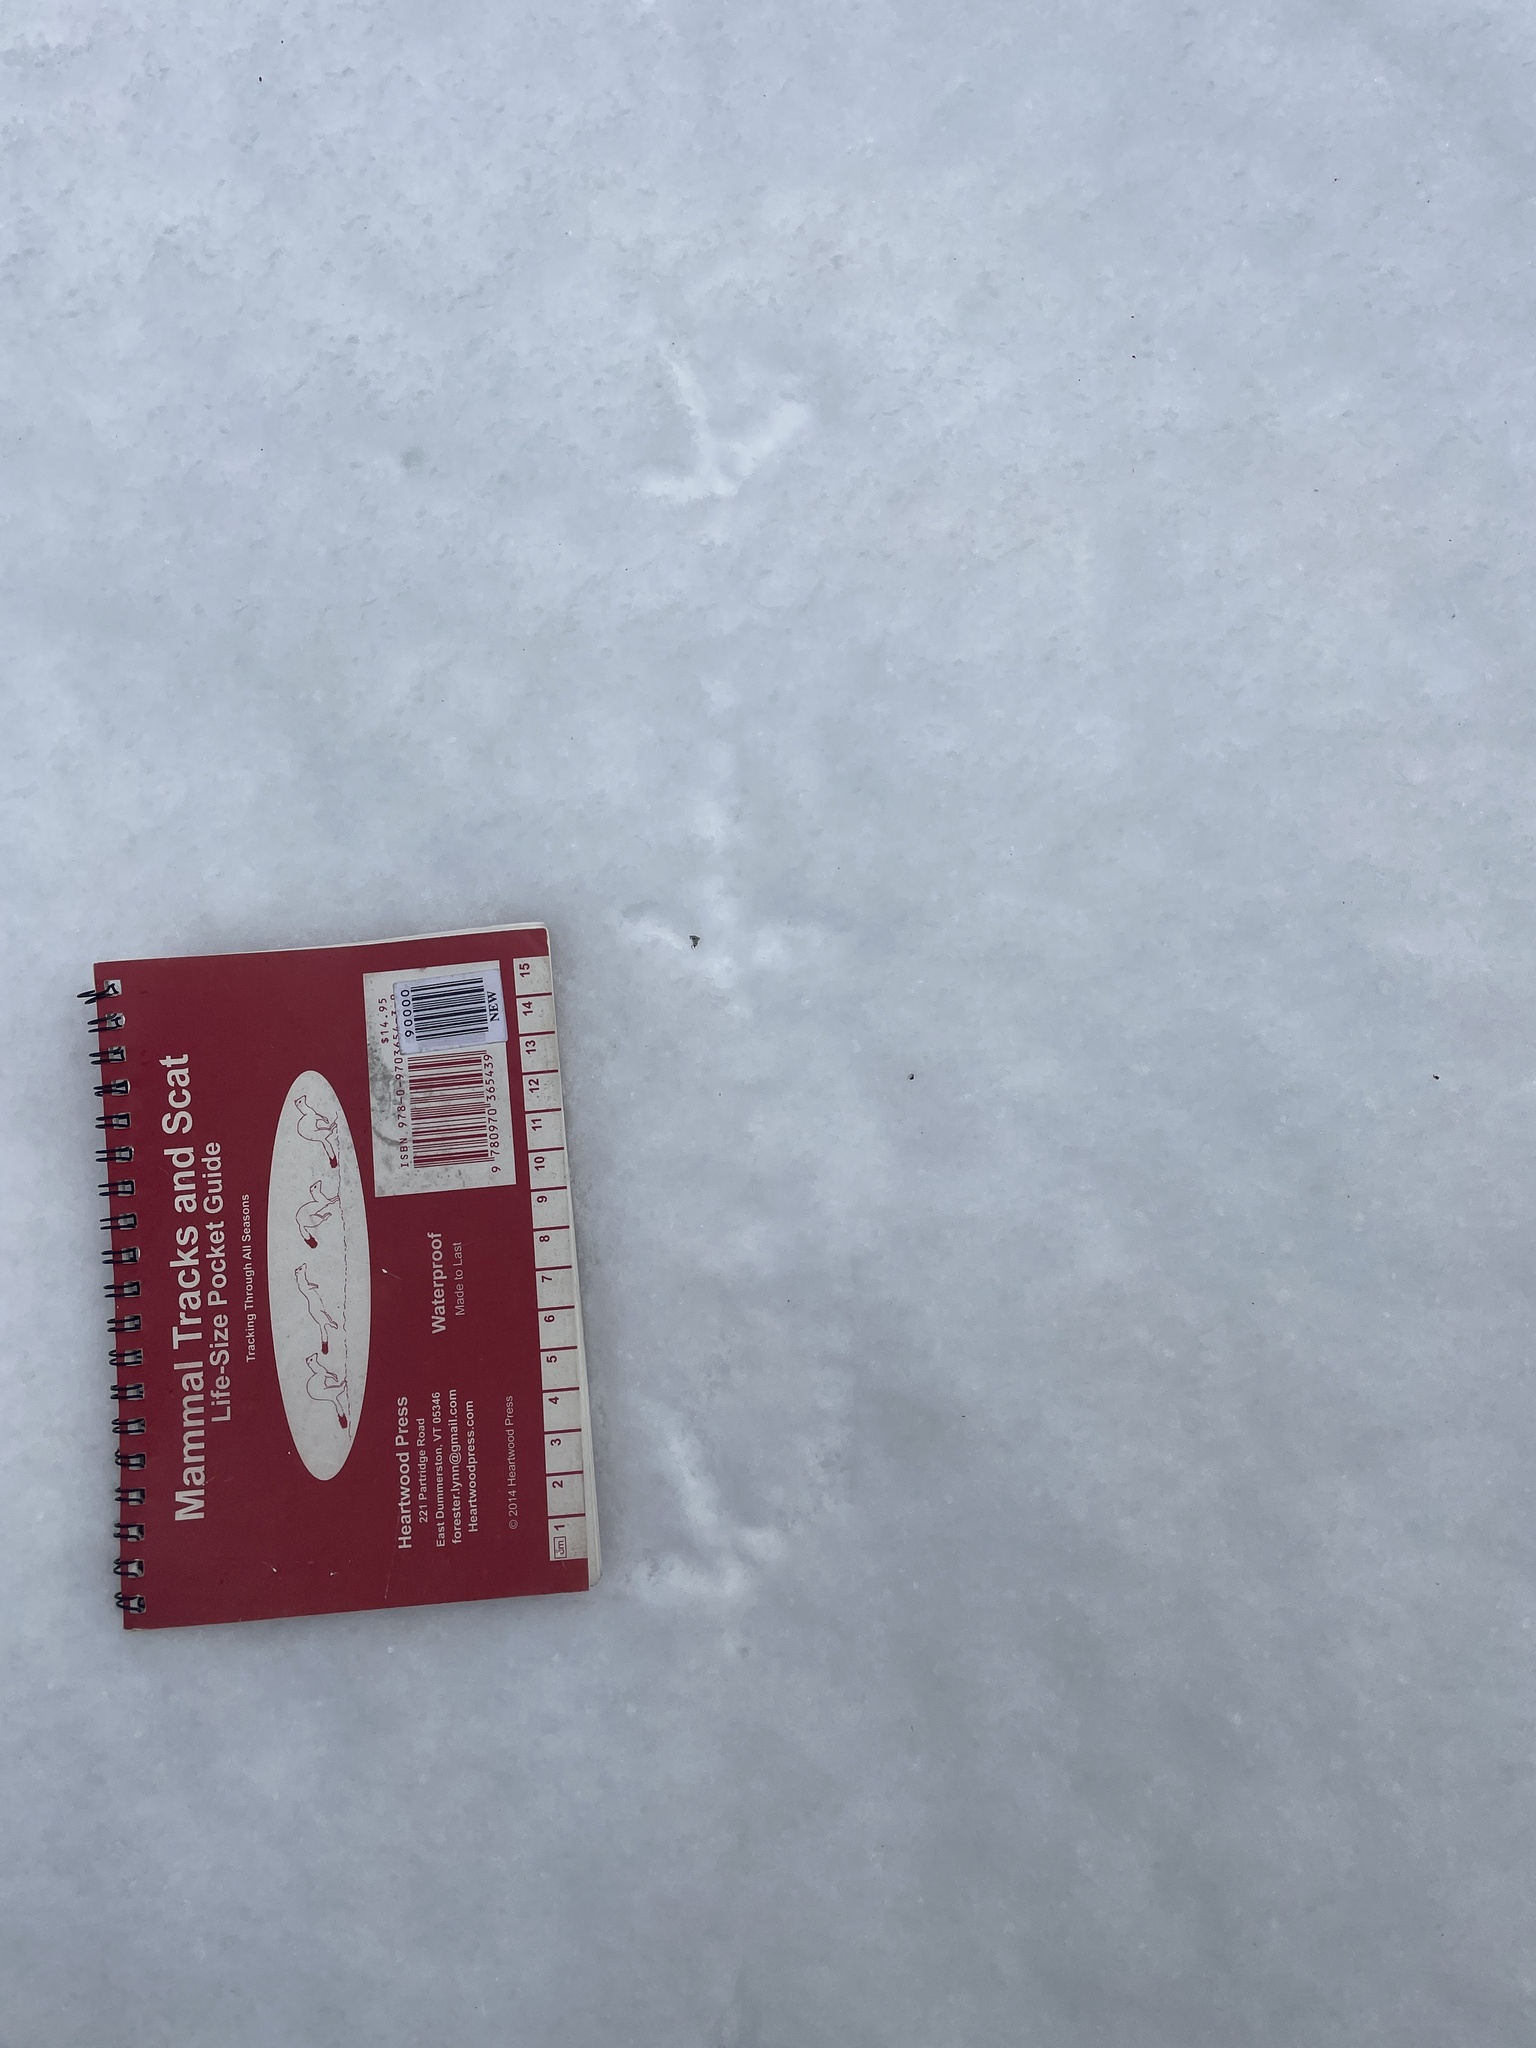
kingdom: Animalia
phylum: Chordata
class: Aves
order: Galliformes
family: Phasianidae
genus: Bonasa
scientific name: Bonasa umbellus
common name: Ruffed grouse
